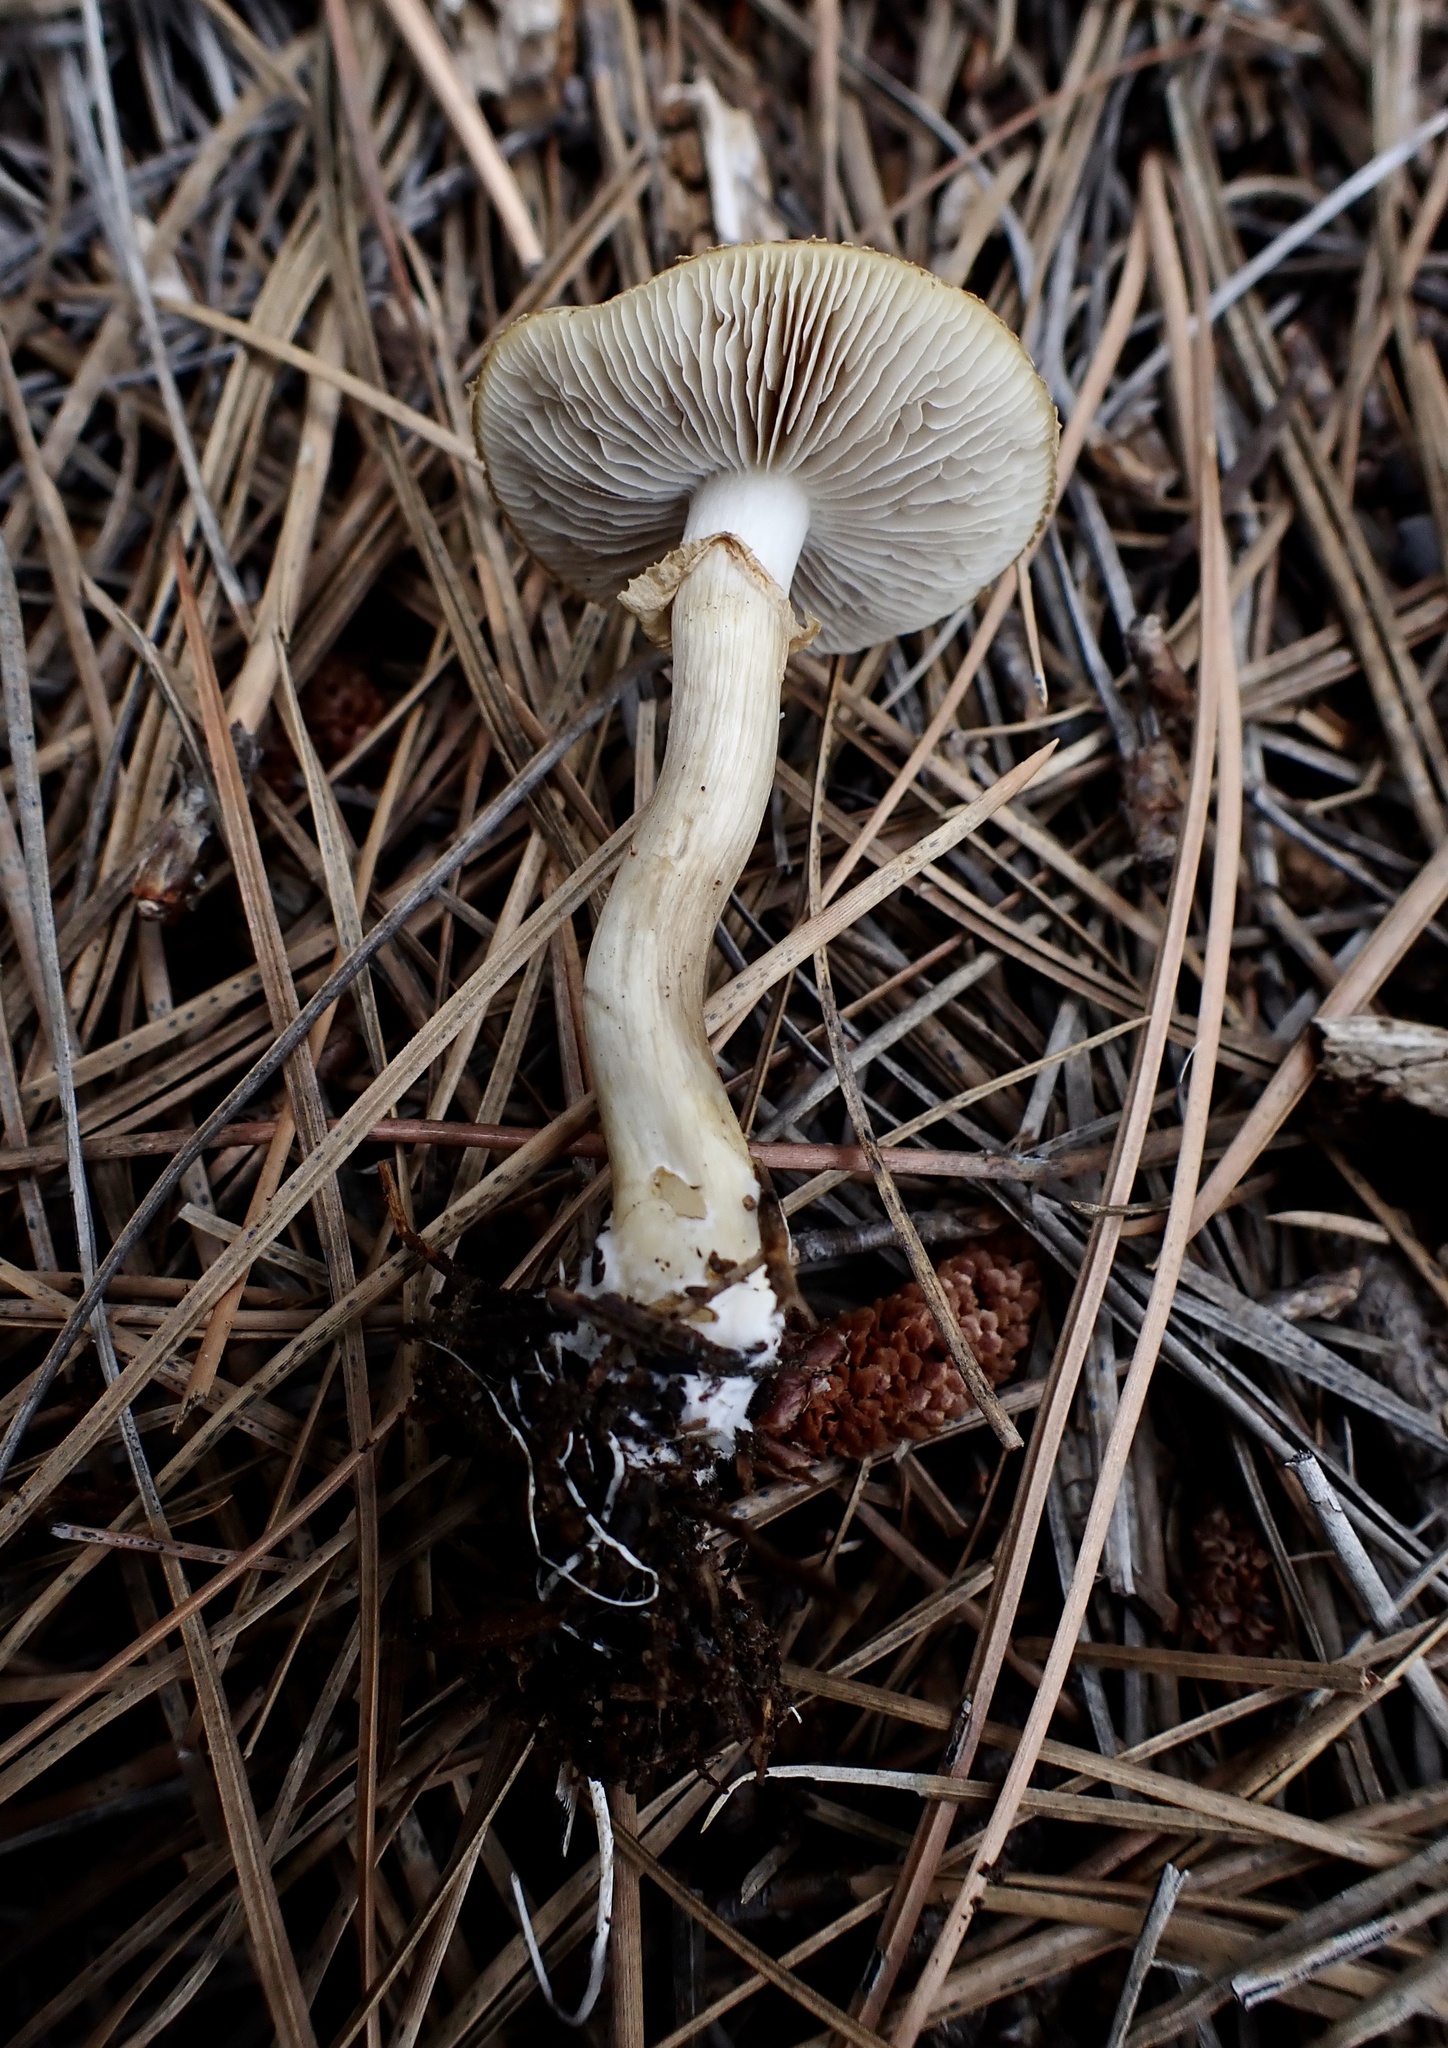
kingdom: Fungi
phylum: Basidiomycota
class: Agaricomycetes
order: Agaricales
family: Strophariaceae
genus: Agrocybe
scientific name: Agrocybe praecox
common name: Spring fieldcap
